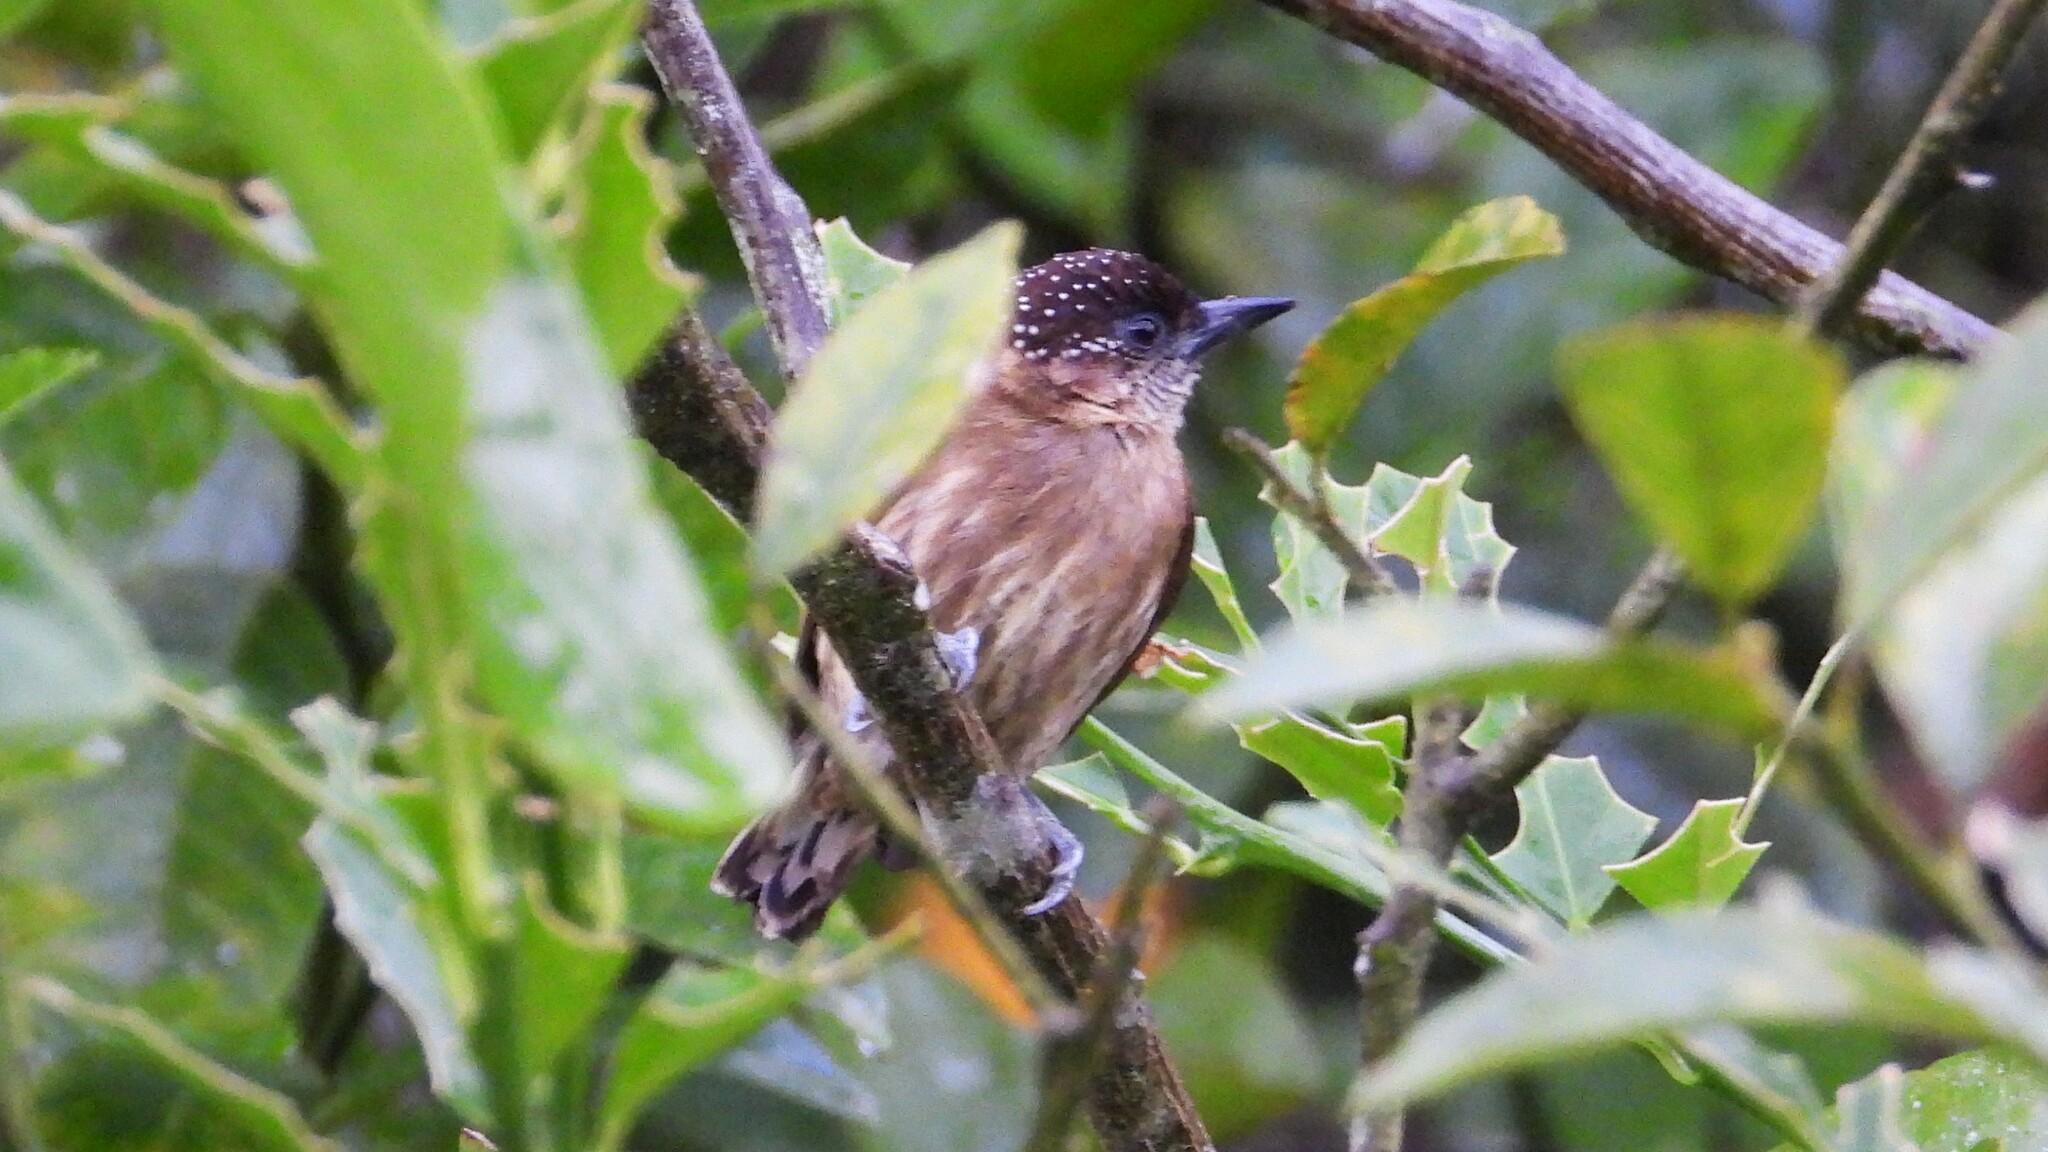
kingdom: Animalia
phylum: Chordata
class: Aves
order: Piciformes
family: Picidae
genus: Picumnus
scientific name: Picumnus olivaceus
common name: Olivaceous piculet
